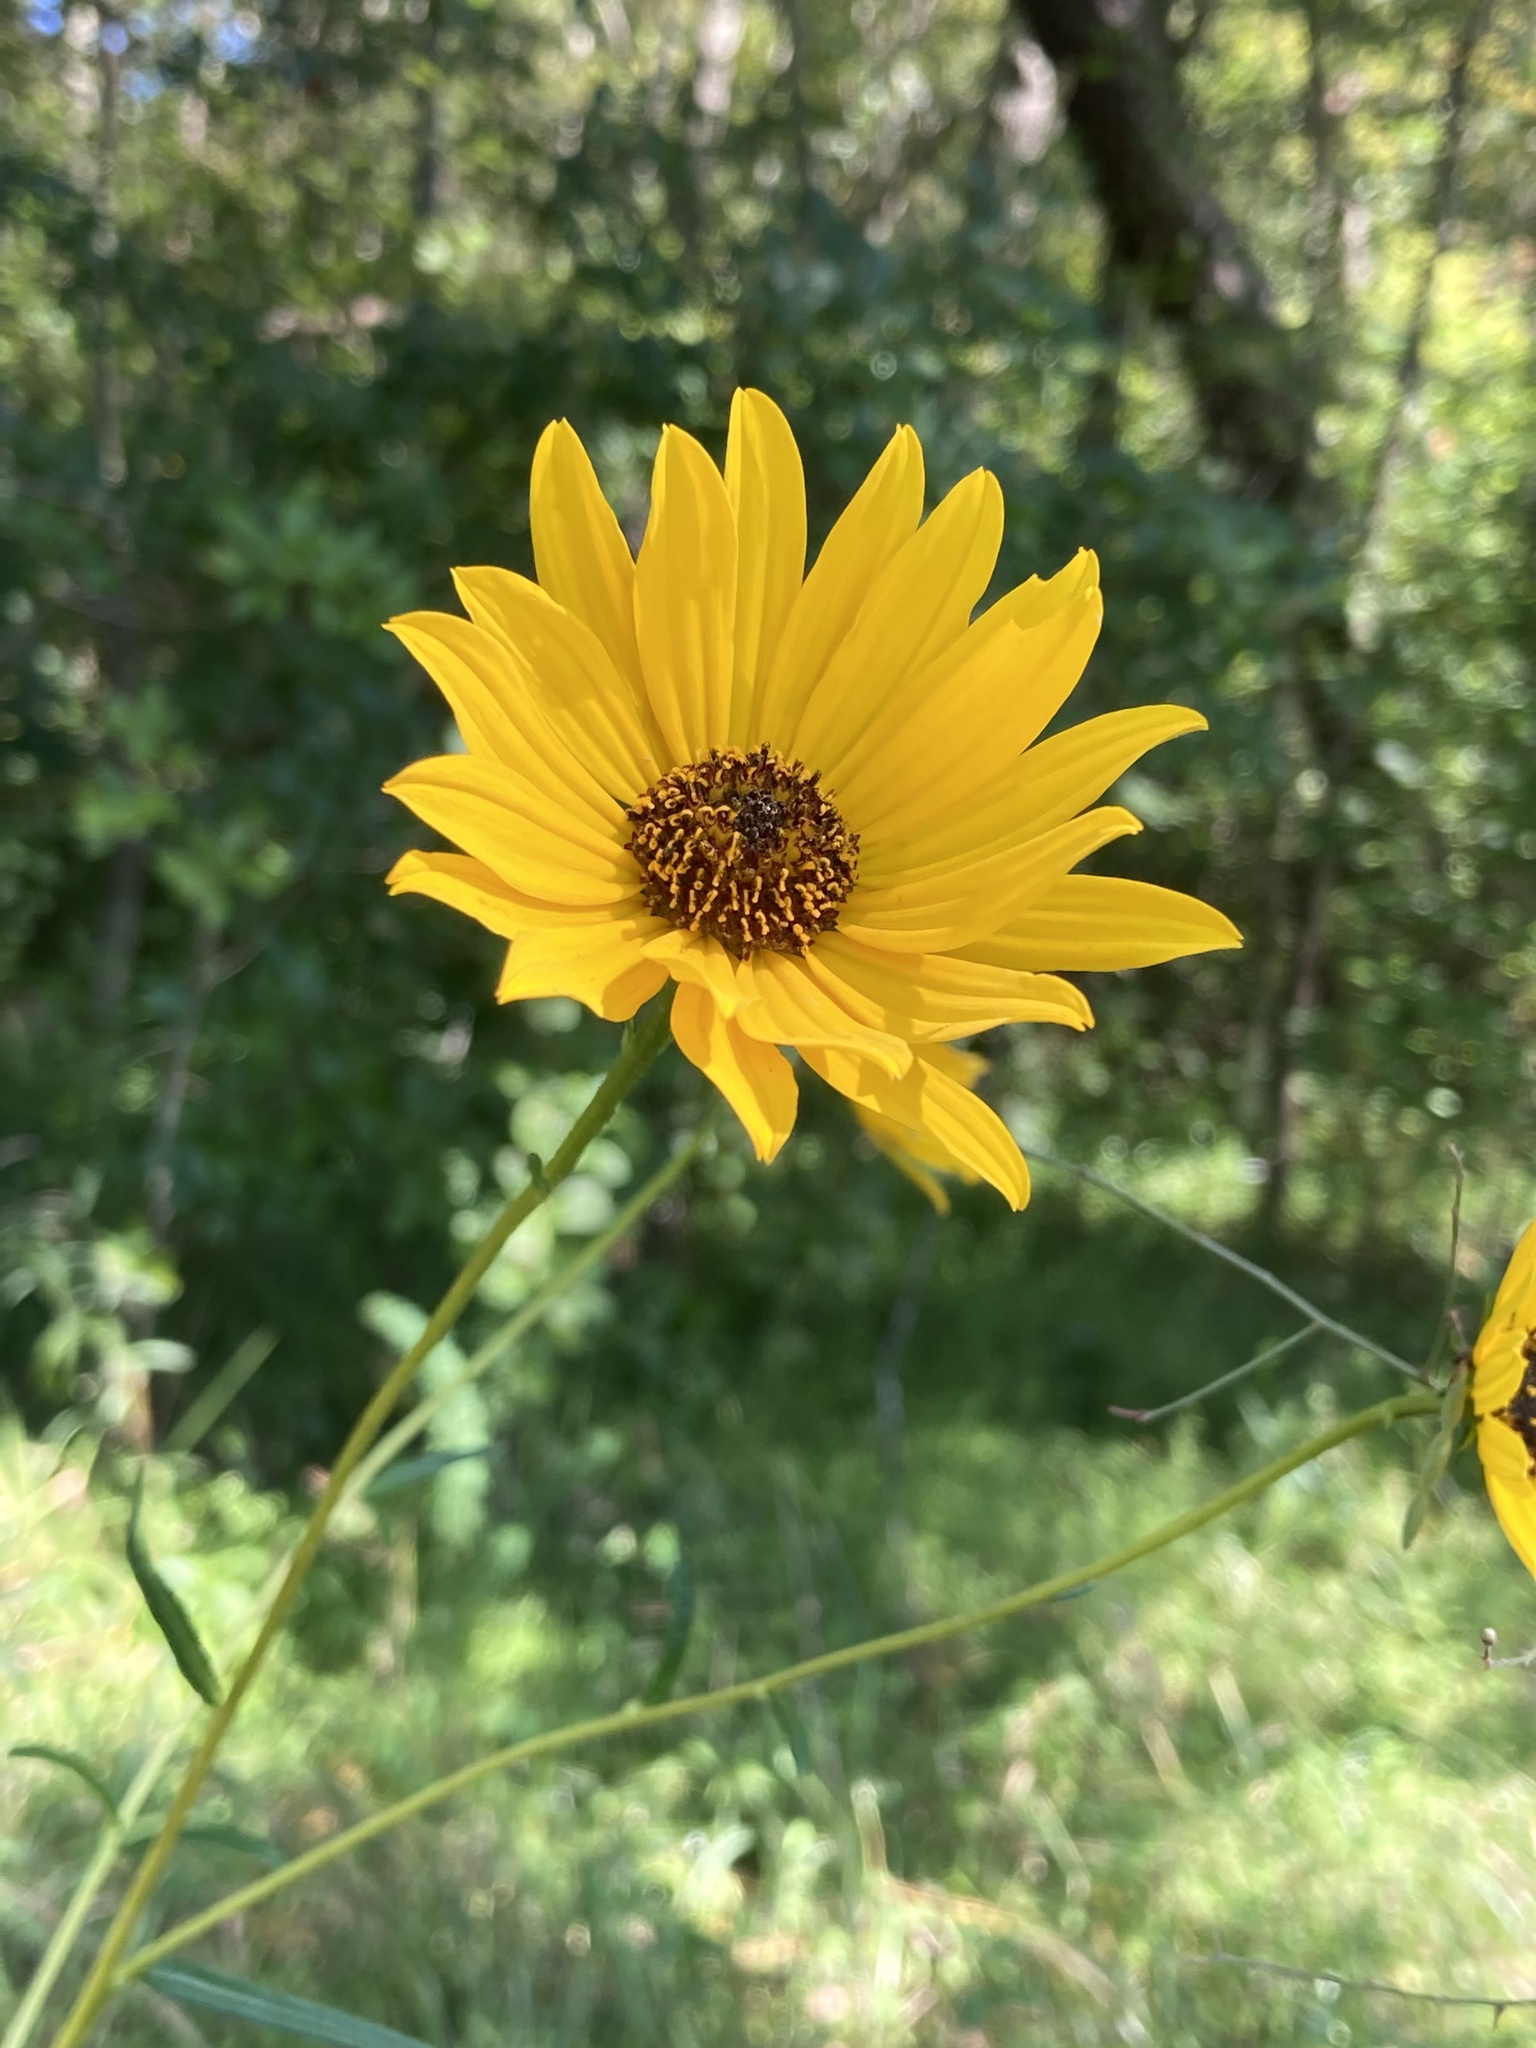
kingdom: Plantae
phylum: Tracheophyta
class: Magnoliopsida
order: Asterales
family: Asteraceae
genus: Helianthus
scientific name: Helianthus angustifolius
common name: Swamp sunflower
